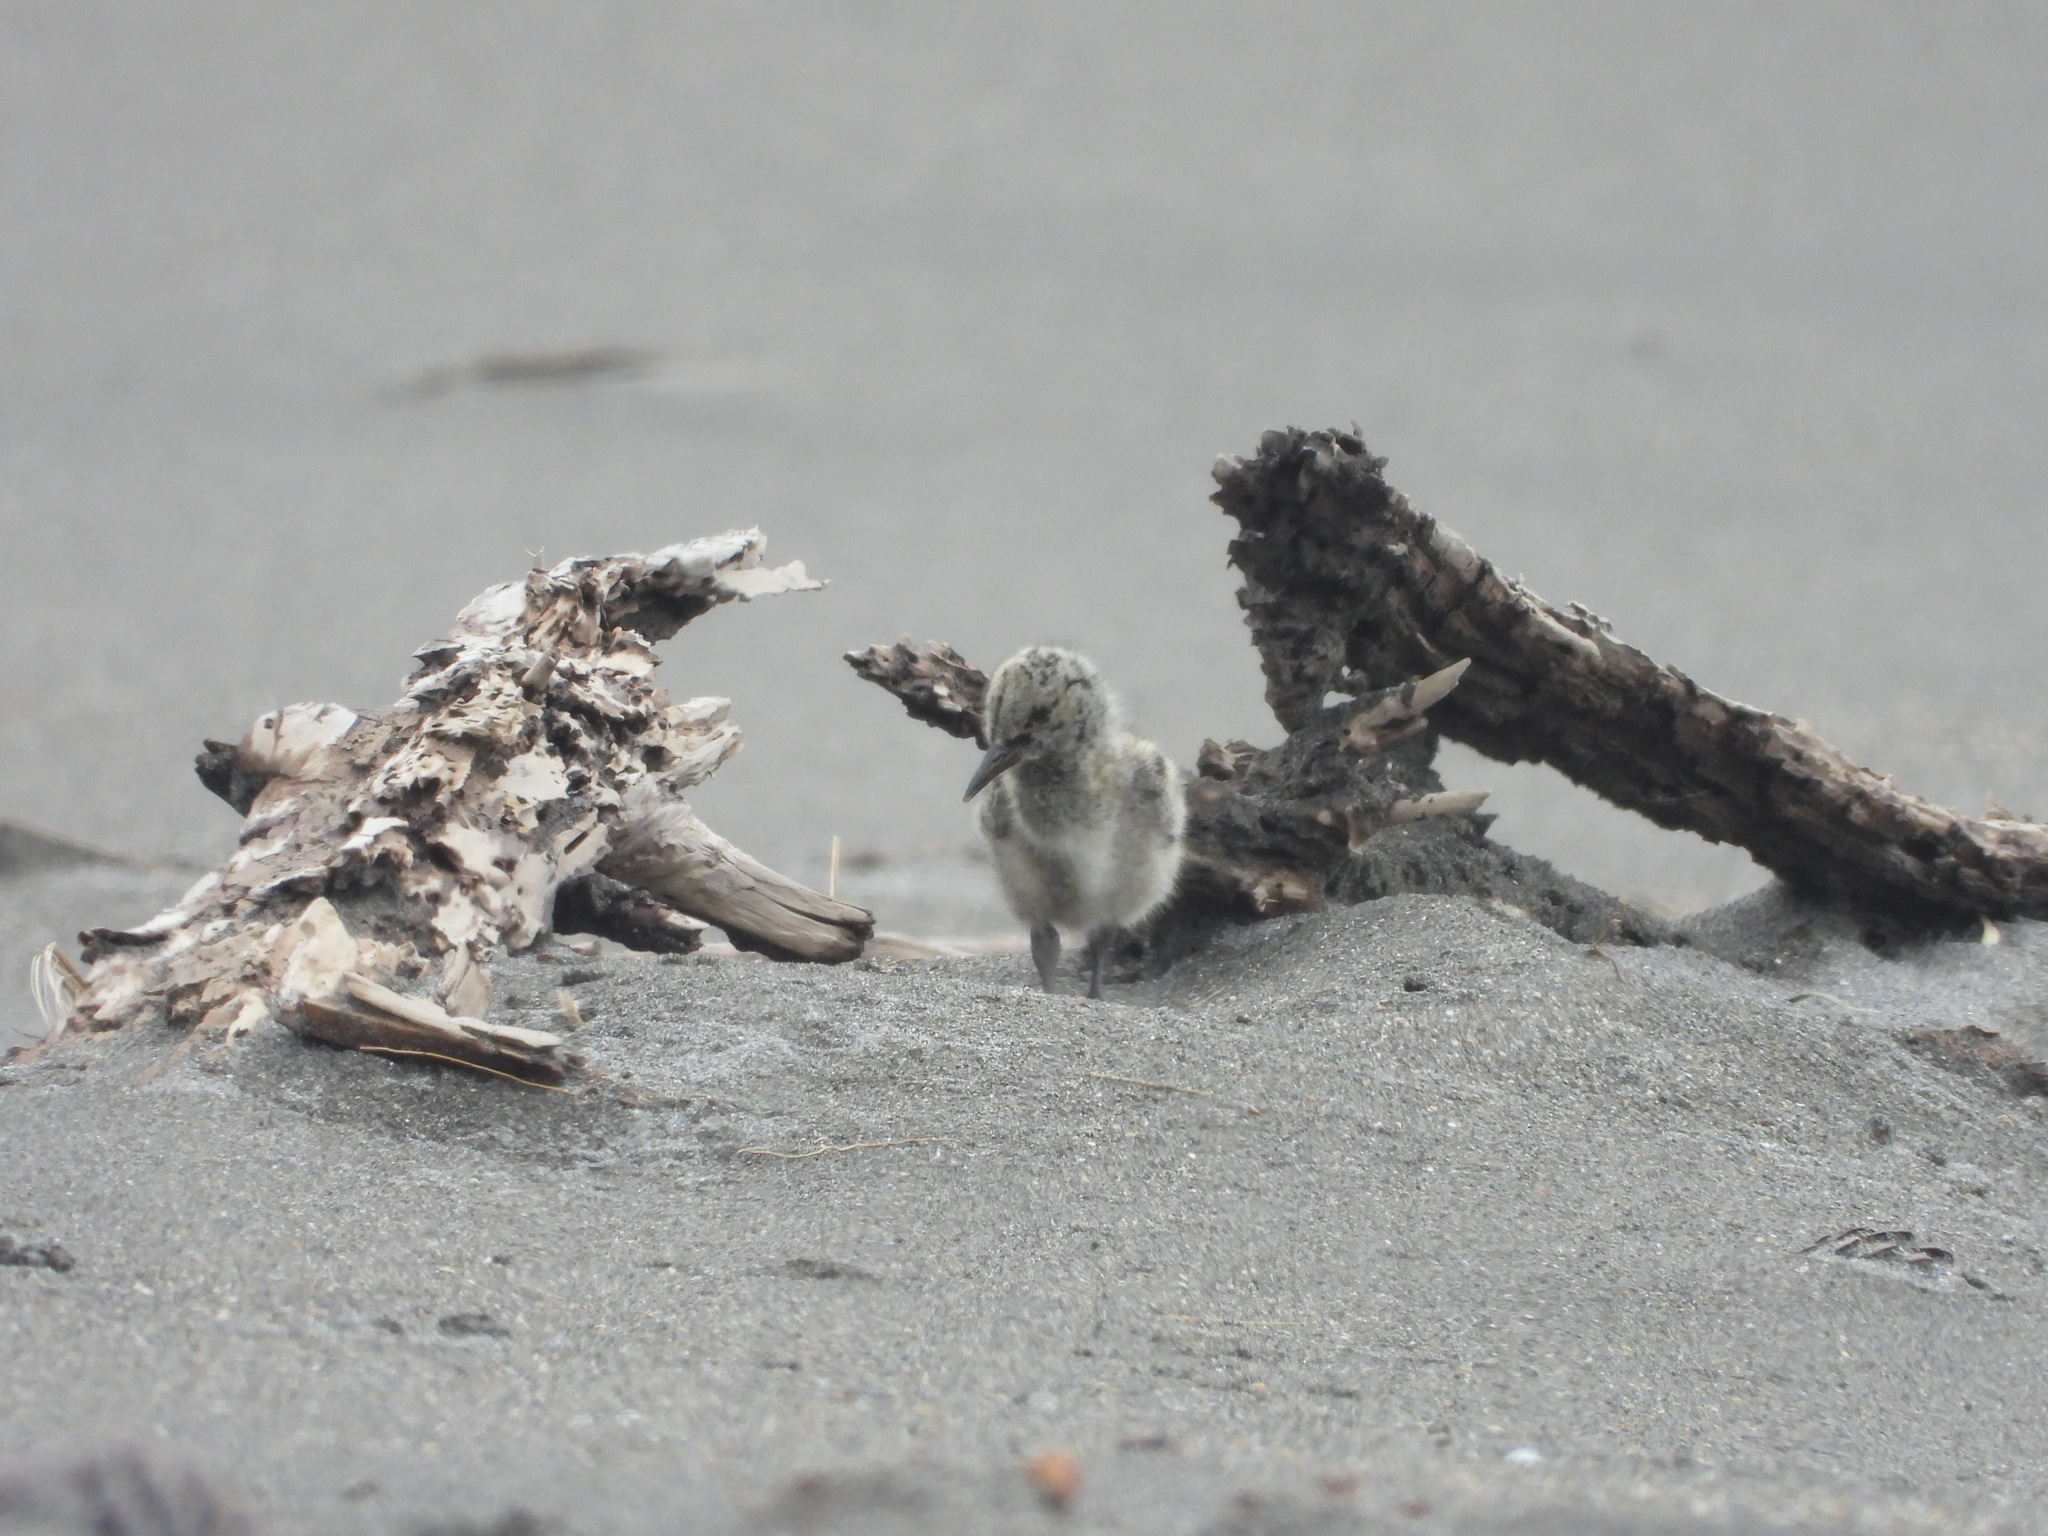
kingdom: Animalia
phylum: Chordata
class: Aves
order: Charadriiformes
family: Haematopodidae
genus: Haematopus
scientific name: Haematopus unicolor
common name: Variable oystercatcher
